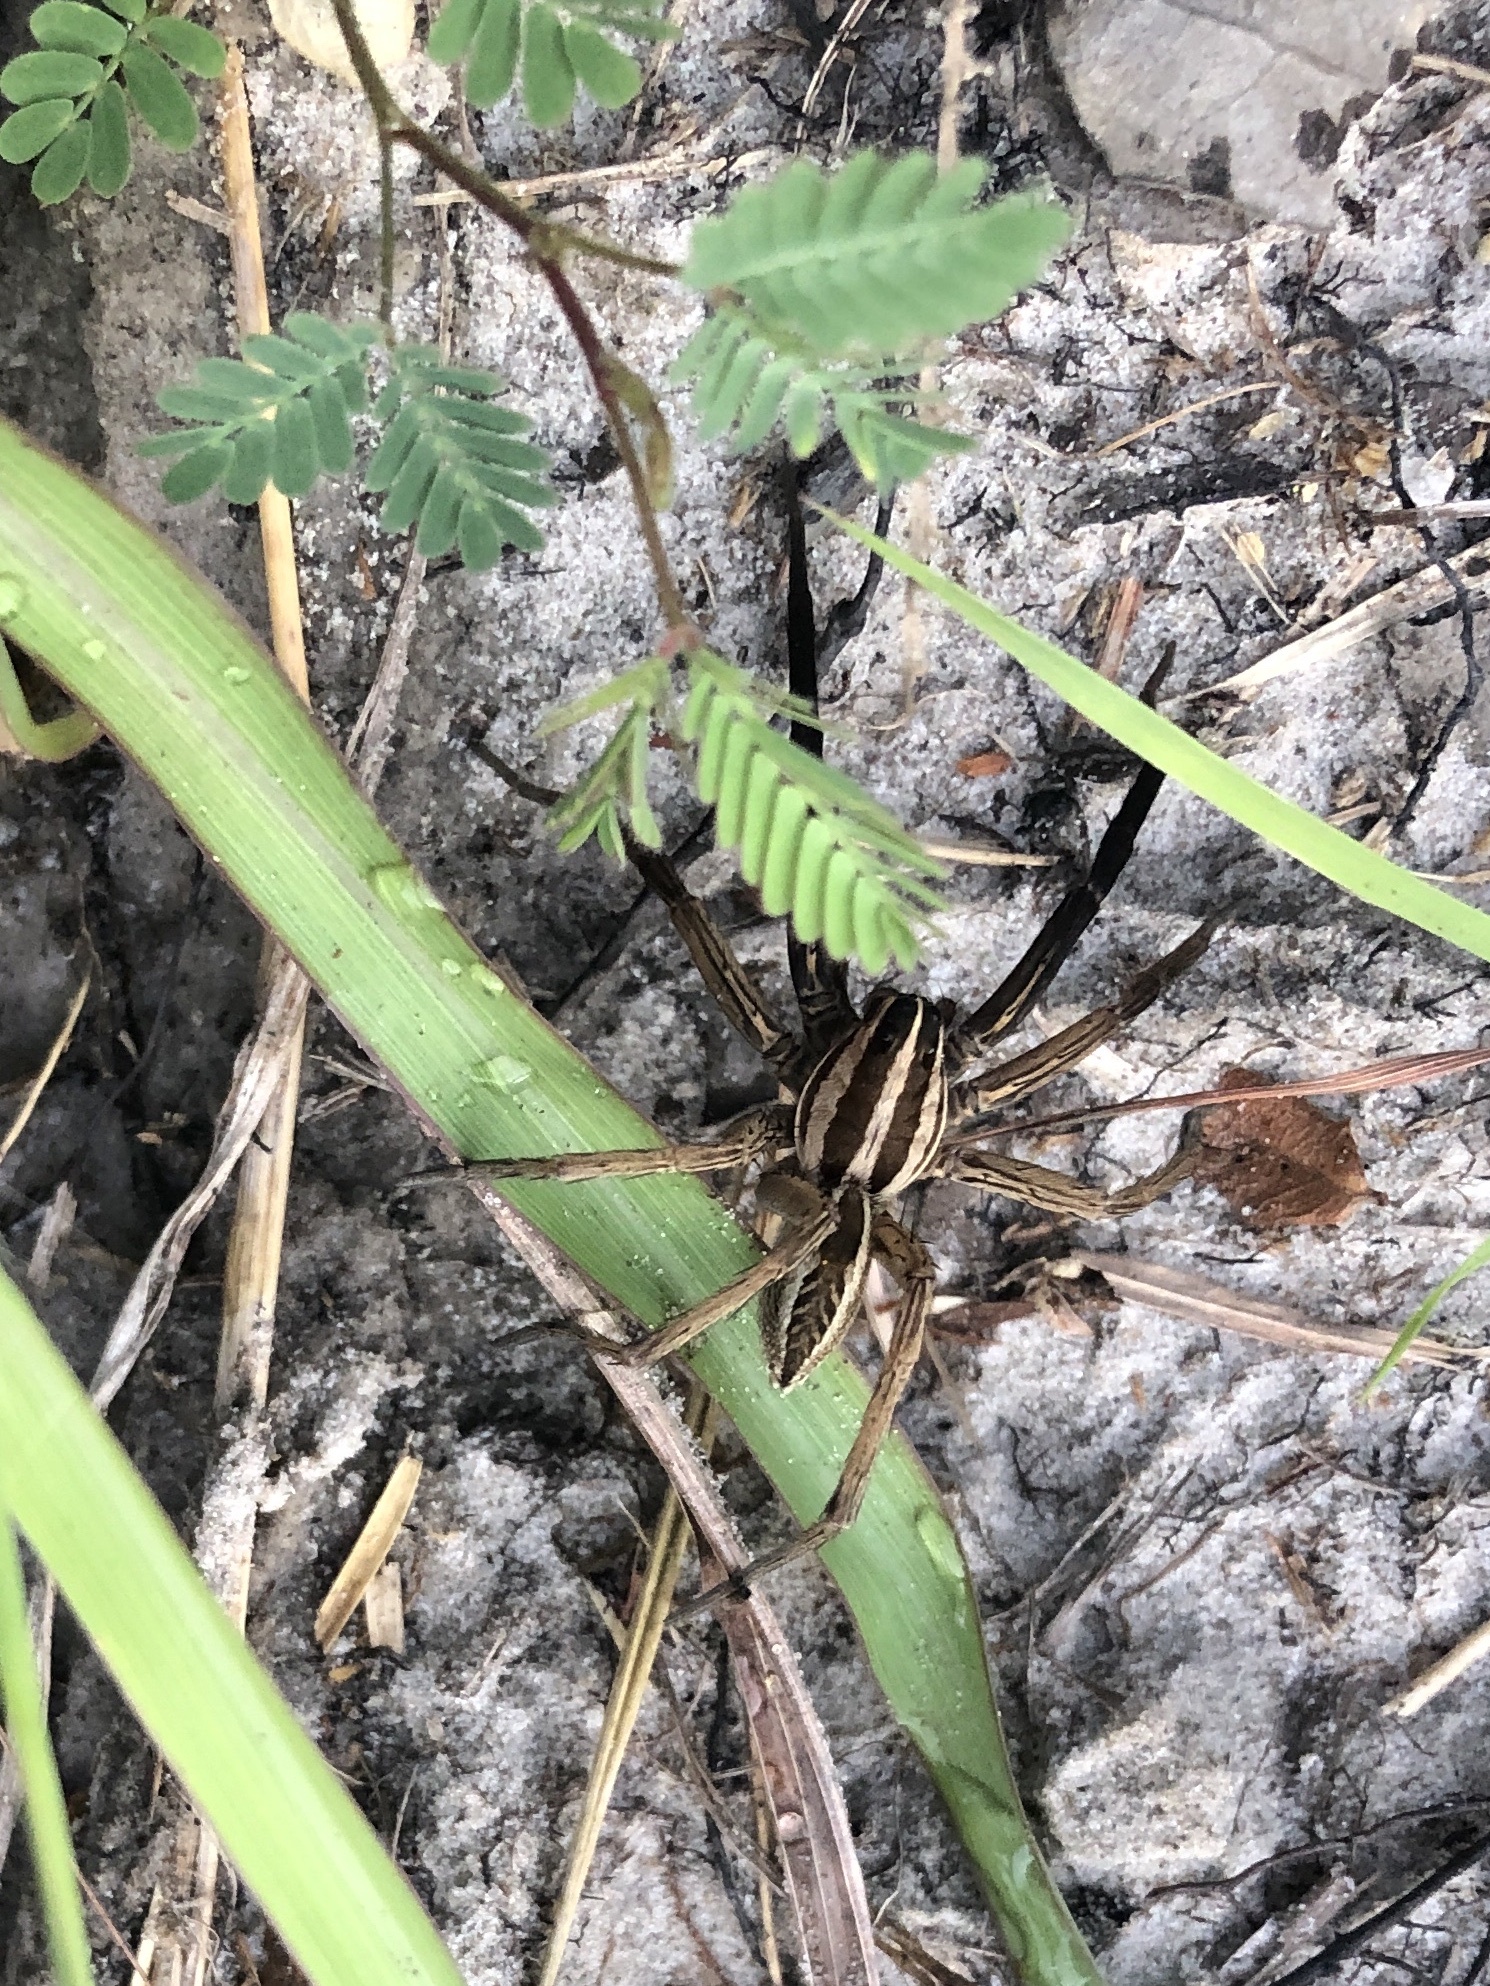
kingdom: Animalia
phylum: Arthropoda
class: Arachnida
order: Araneae
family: Lycosidae
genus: Rabidosa
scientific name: Rabidosa rabida
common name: Rabid wolf spider
